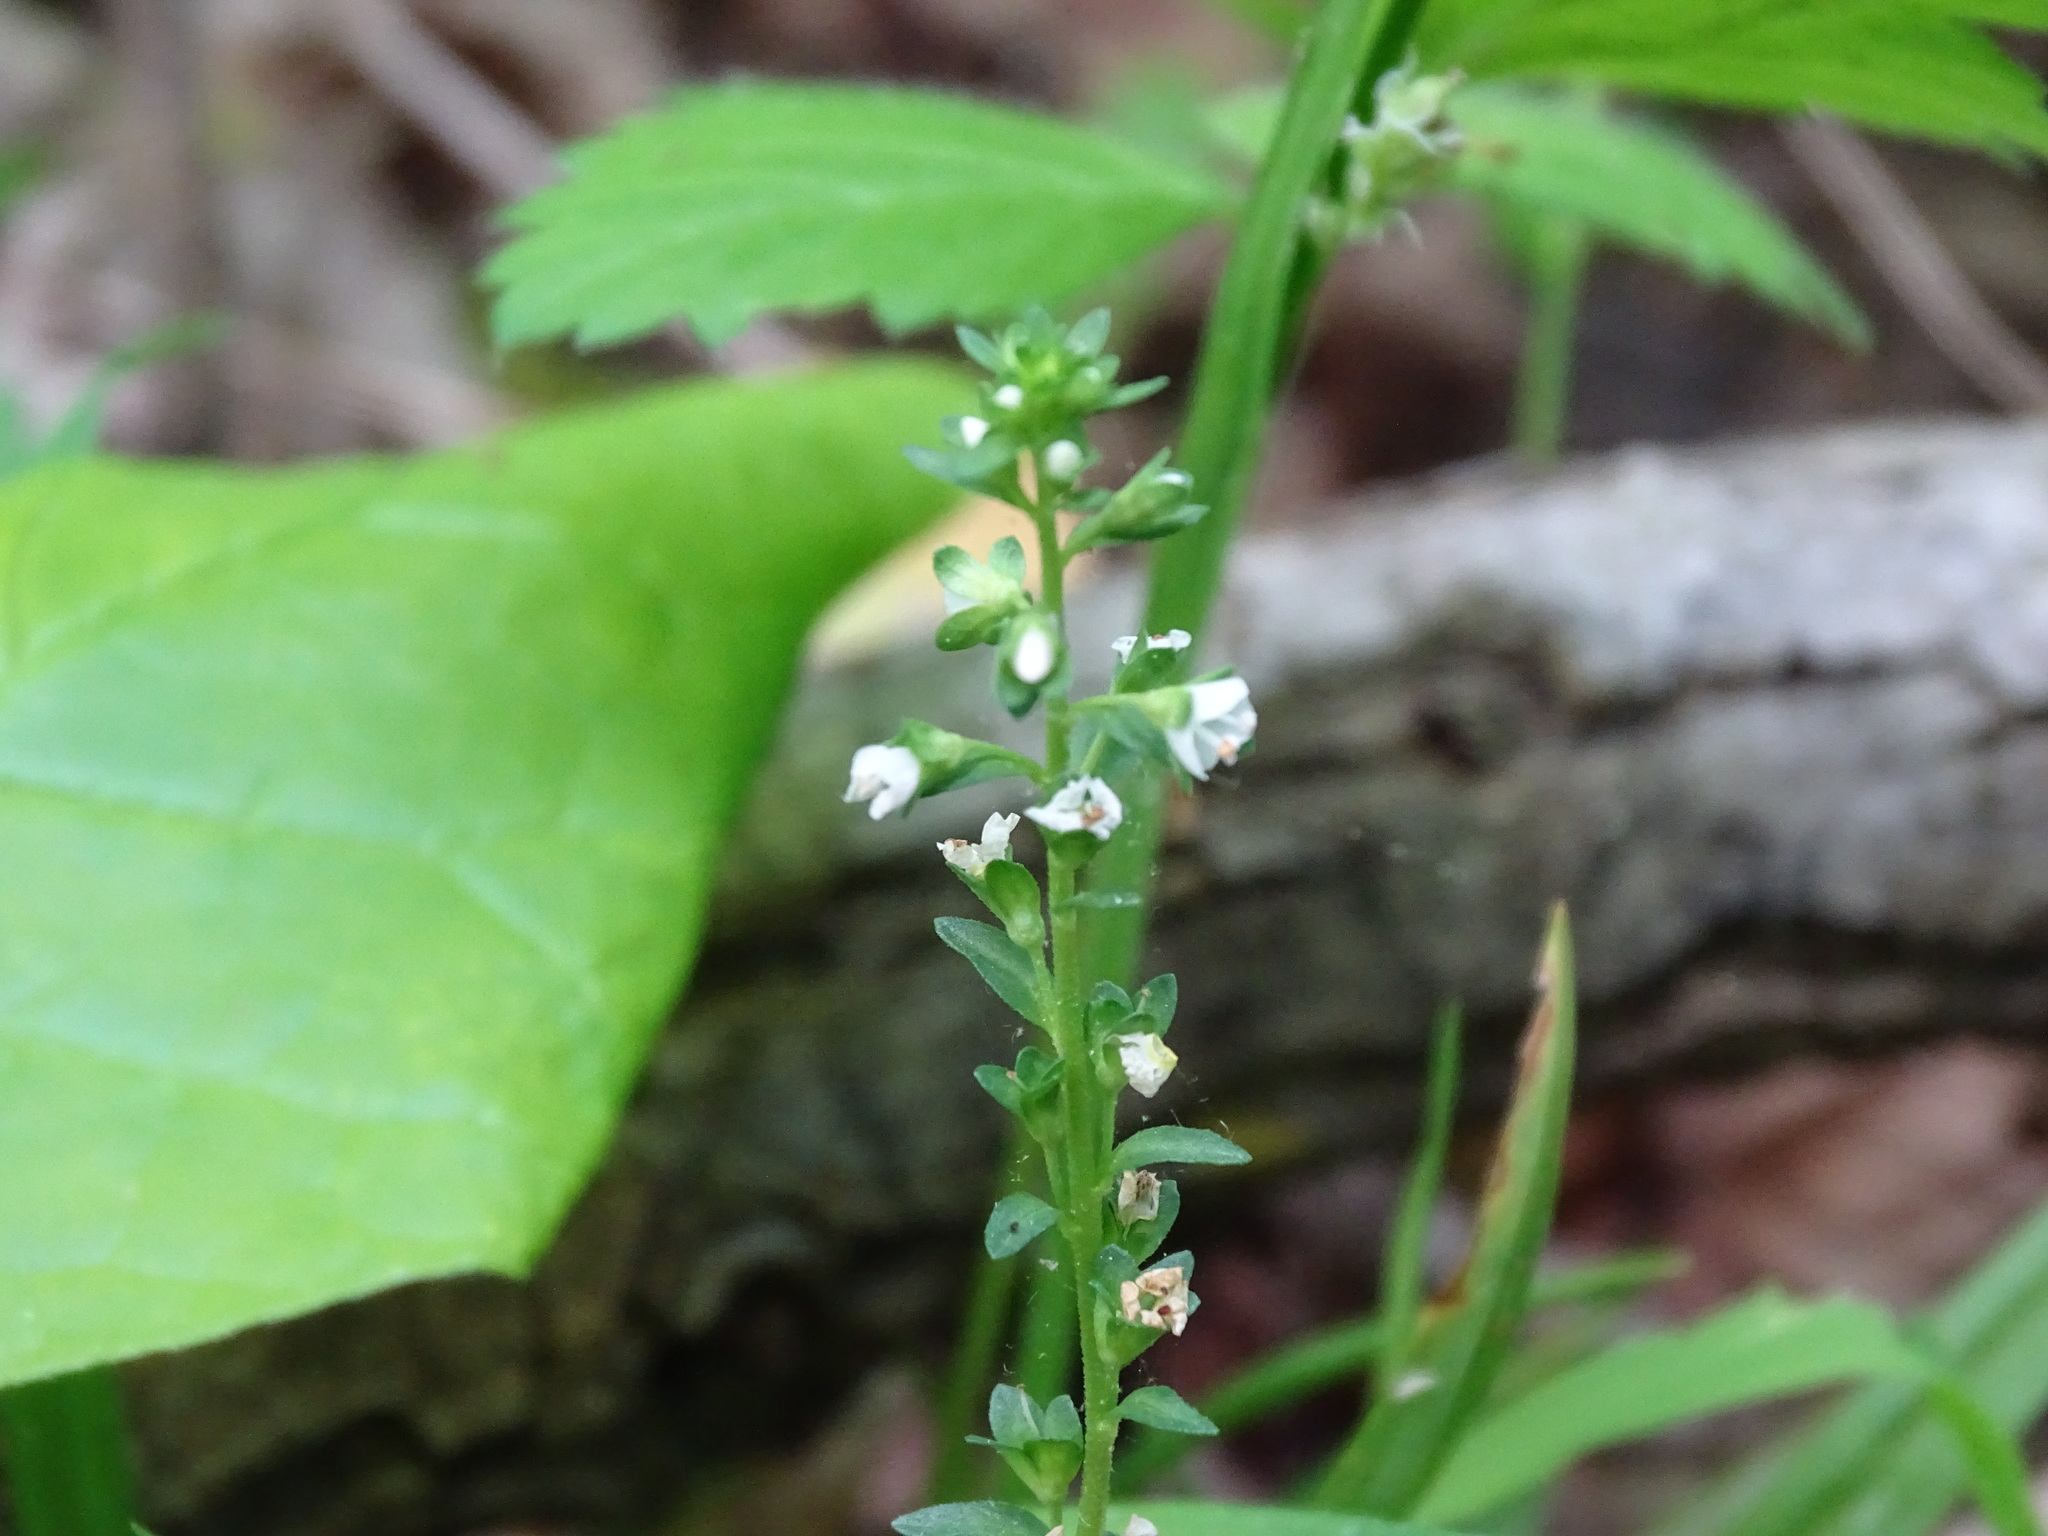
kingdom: Plantae
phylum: Tracheophyta
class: Magnoliopsida
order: Lamiales
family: Plantaginaceae
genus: Veronica
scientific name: Veronica serpyllifolia
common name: Thyme-leaved speedwell
